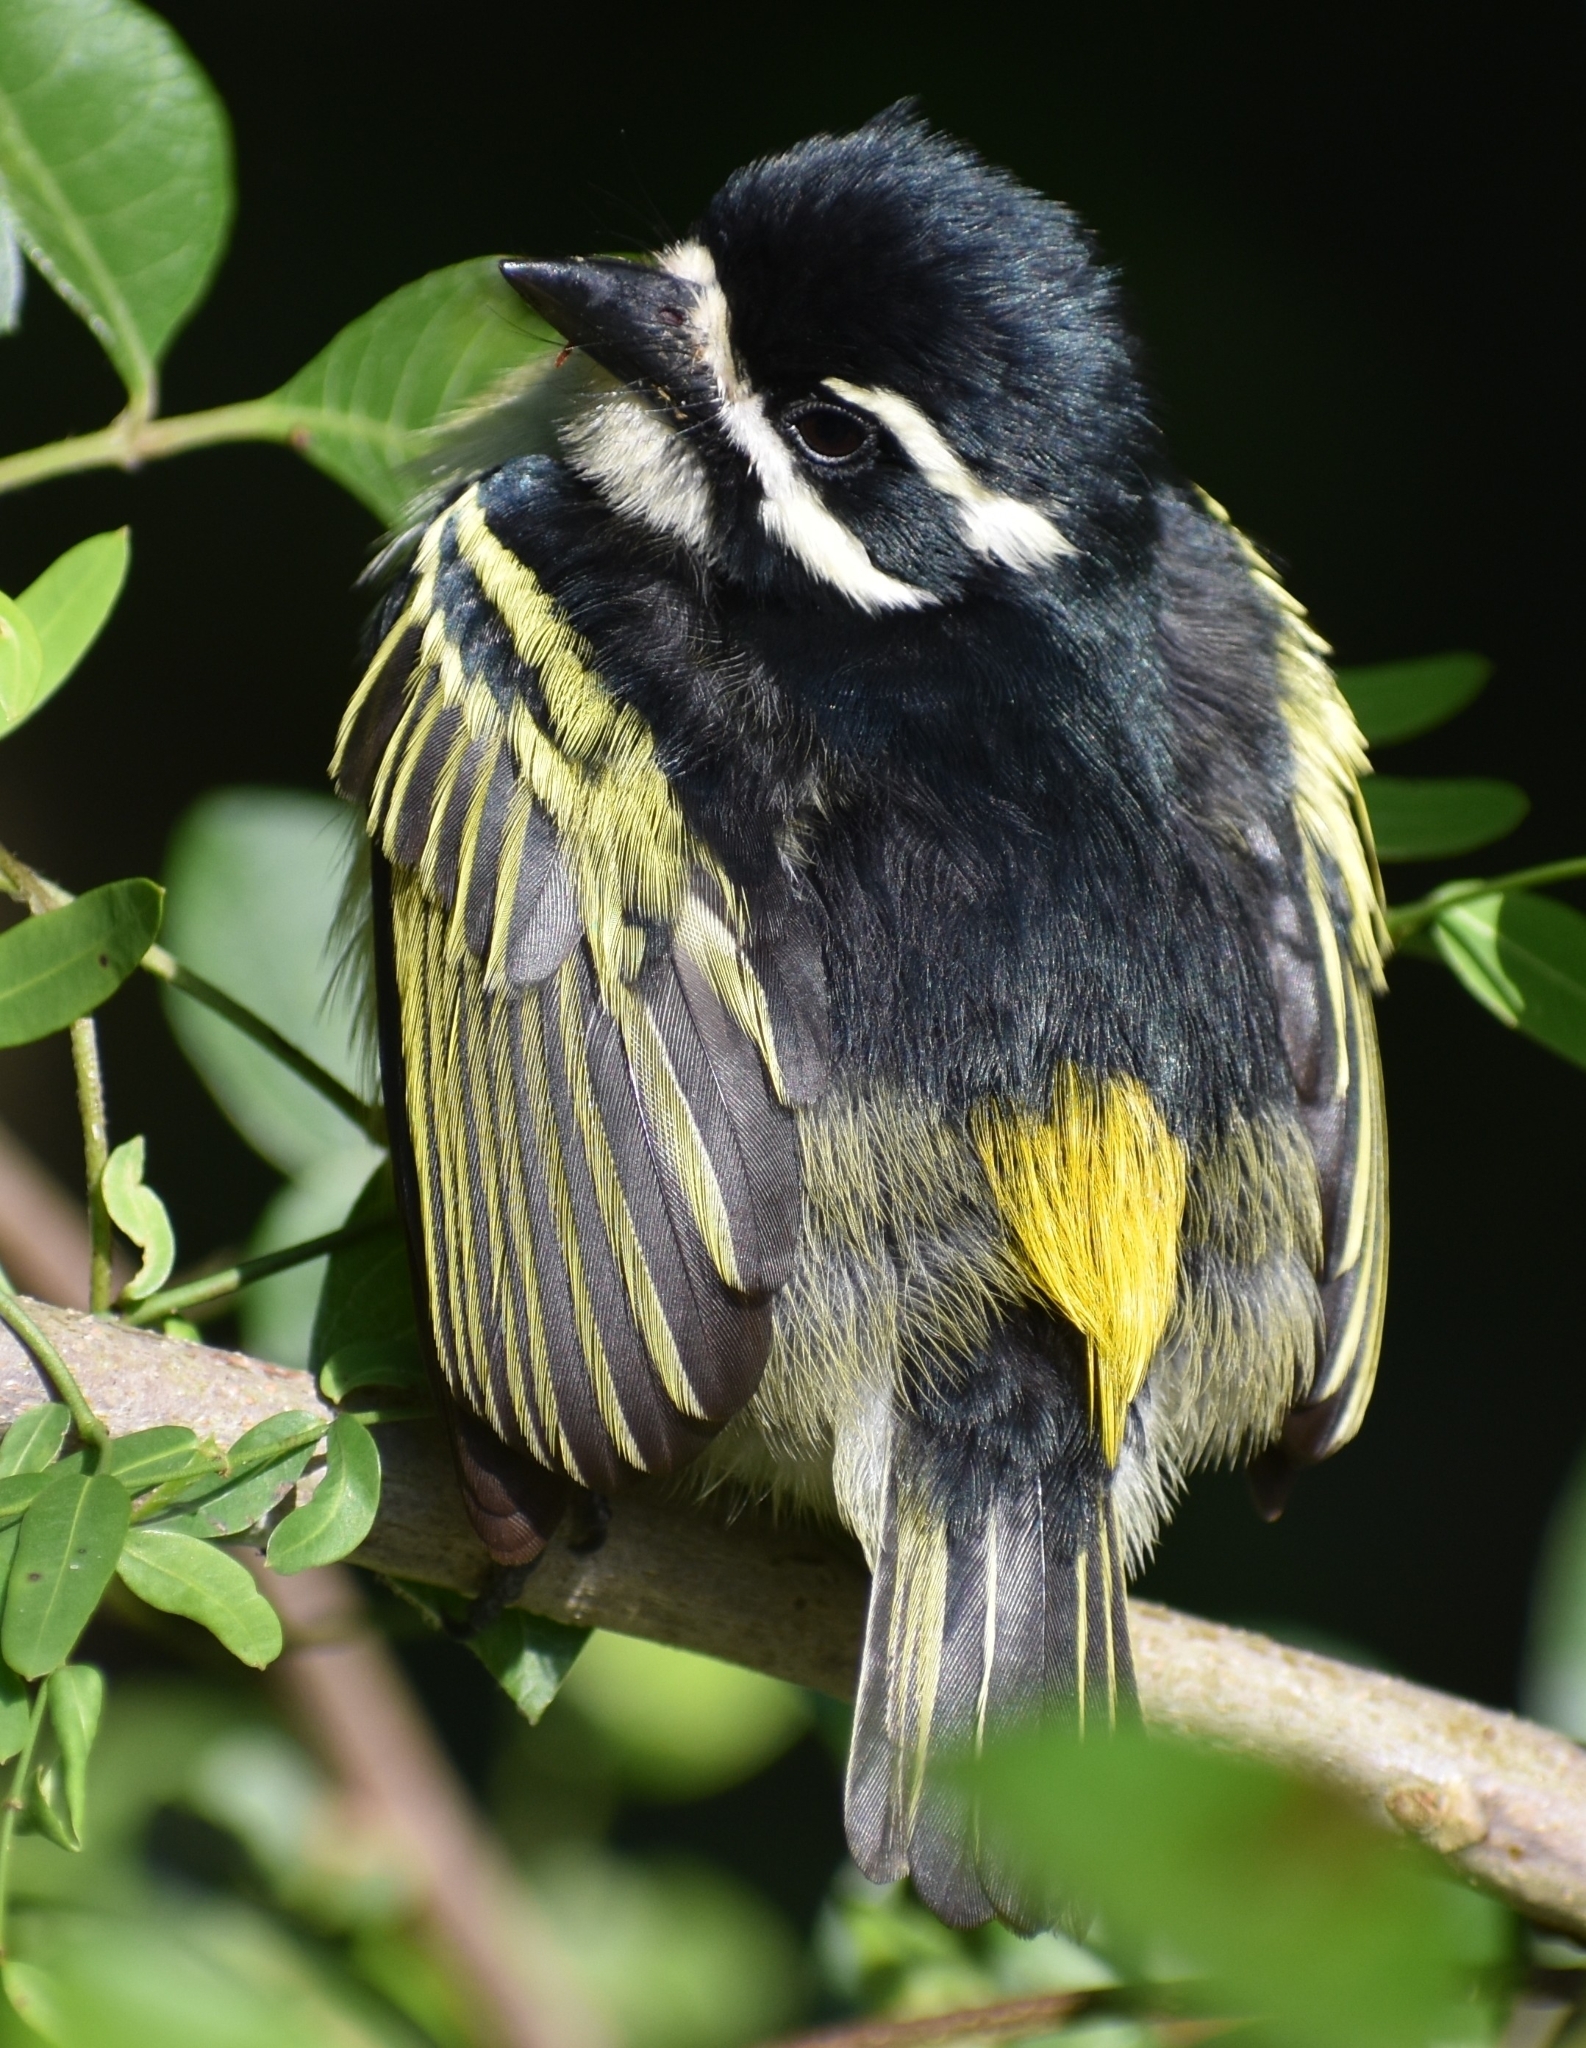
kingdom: Animalia
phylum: Chordata
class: Aves
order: Piciformes
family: Lybiidae
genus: Pogoniulus
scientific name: Pogoniulus bilineatus
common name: Yellow-rumped tinkerbird
